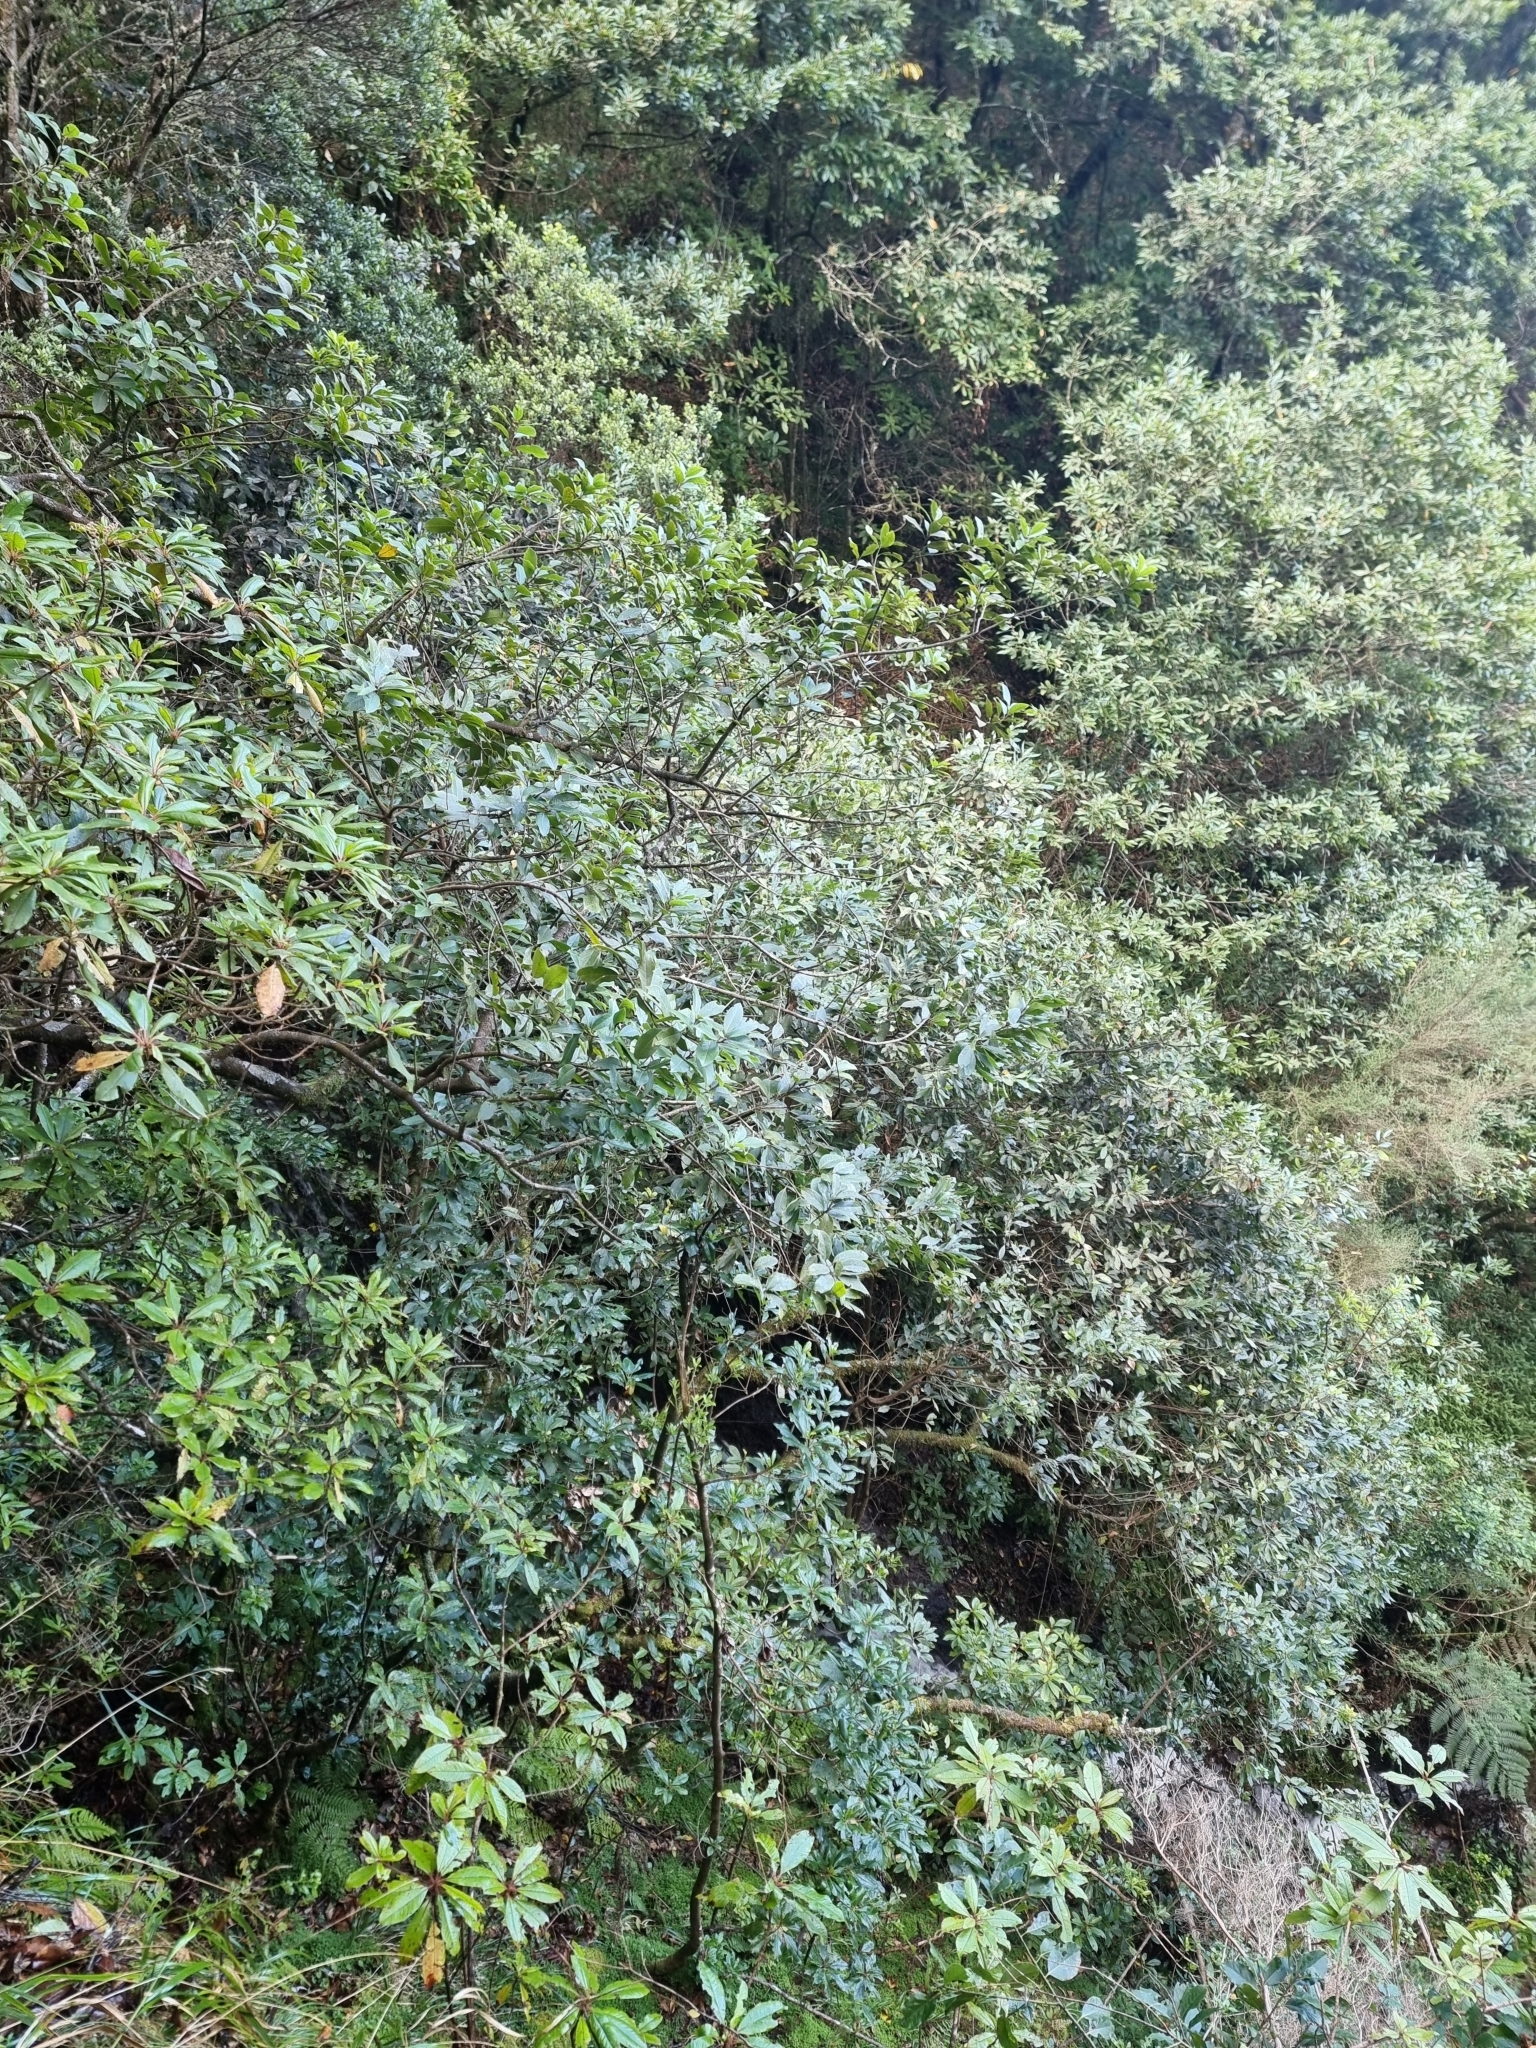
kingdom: Plantae
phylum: Tracheophyta
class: Magnoliopsida
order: Laurales
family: Lauraceae
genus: Laurus
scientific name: Laurus novocanariensis
